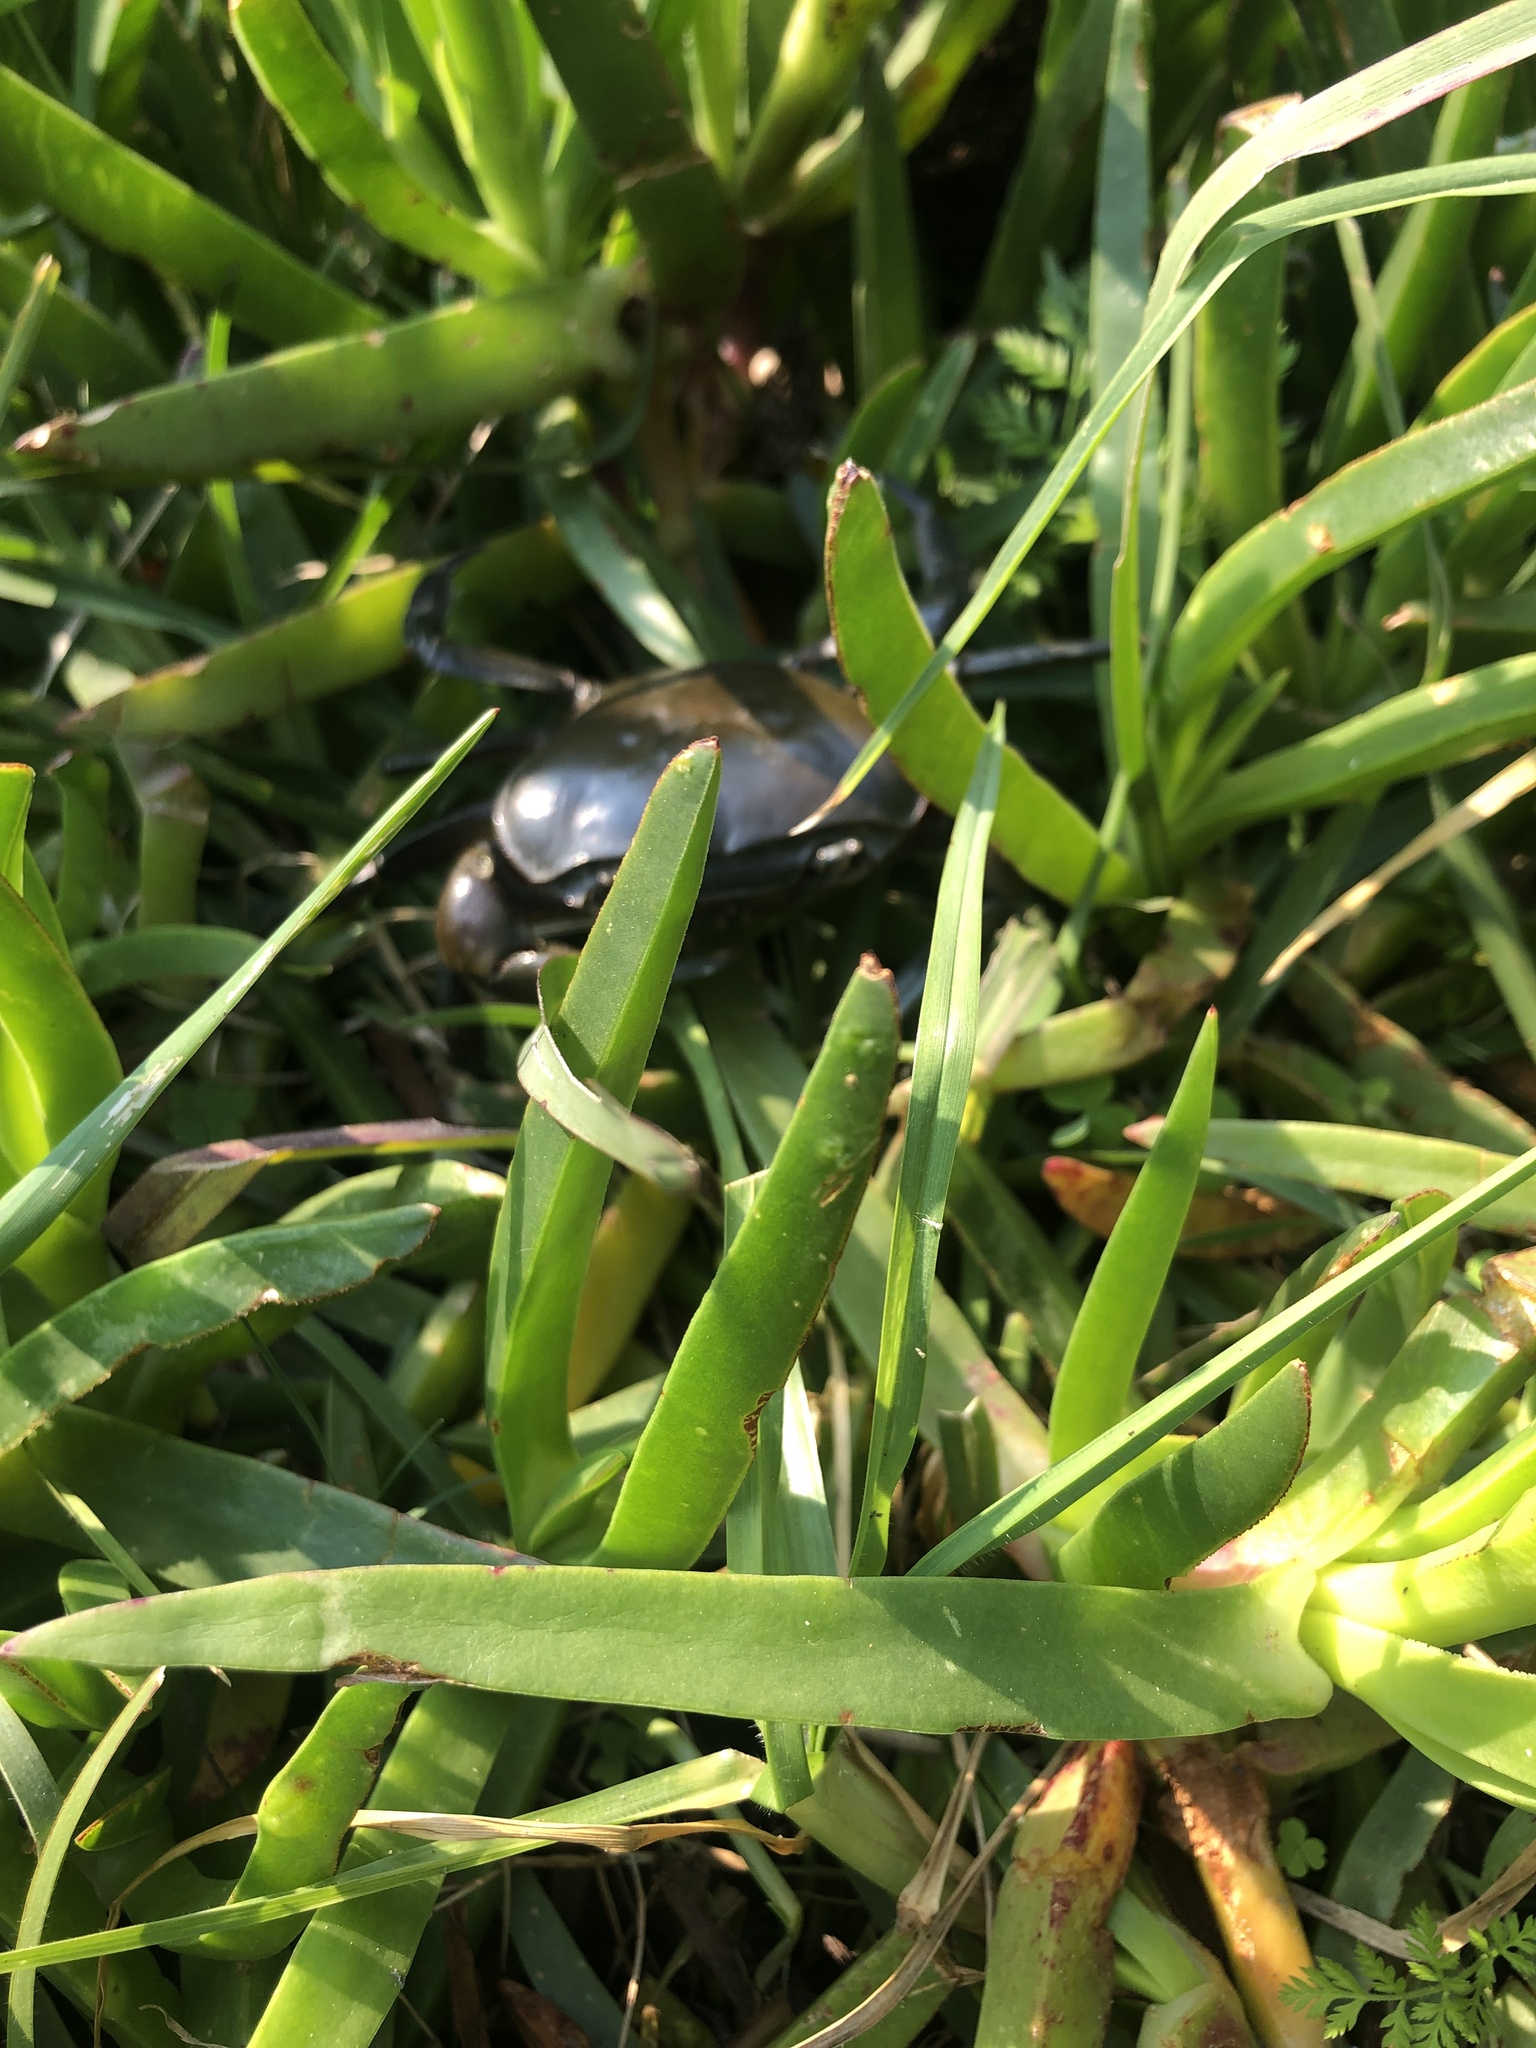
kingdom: Animalia
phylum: Arthropoda
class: Malacostraca
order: Decapoda
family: Potamonautidae
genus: Potamonautes
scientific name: Potamonautes perlatus
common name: Cape river crab
